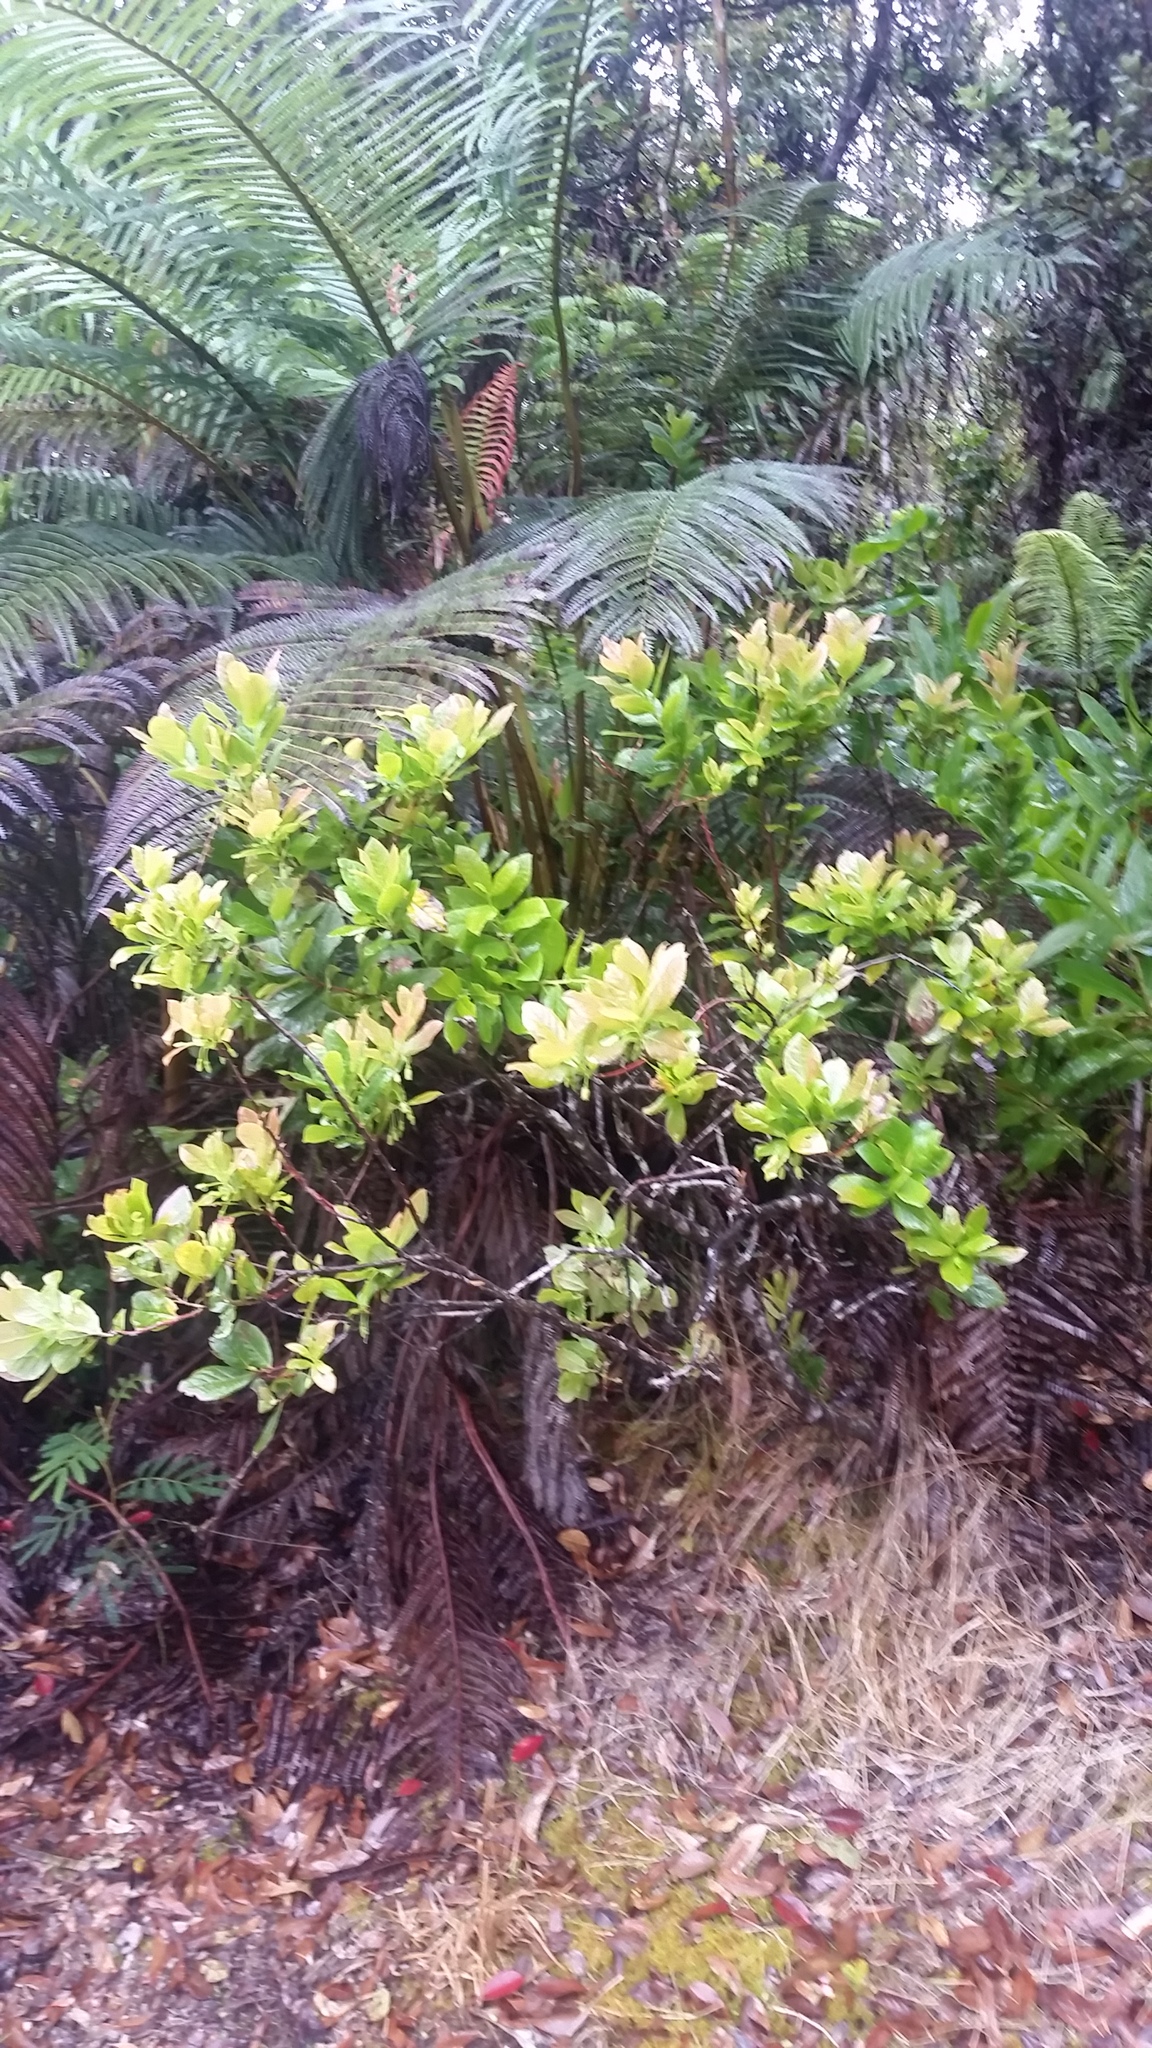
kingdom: Plantae
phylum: Tracheophyta
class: Magnoliopsida
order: Ericales
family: Ericaceae
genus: Vaccinium
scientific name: Vaccinium calycinum
